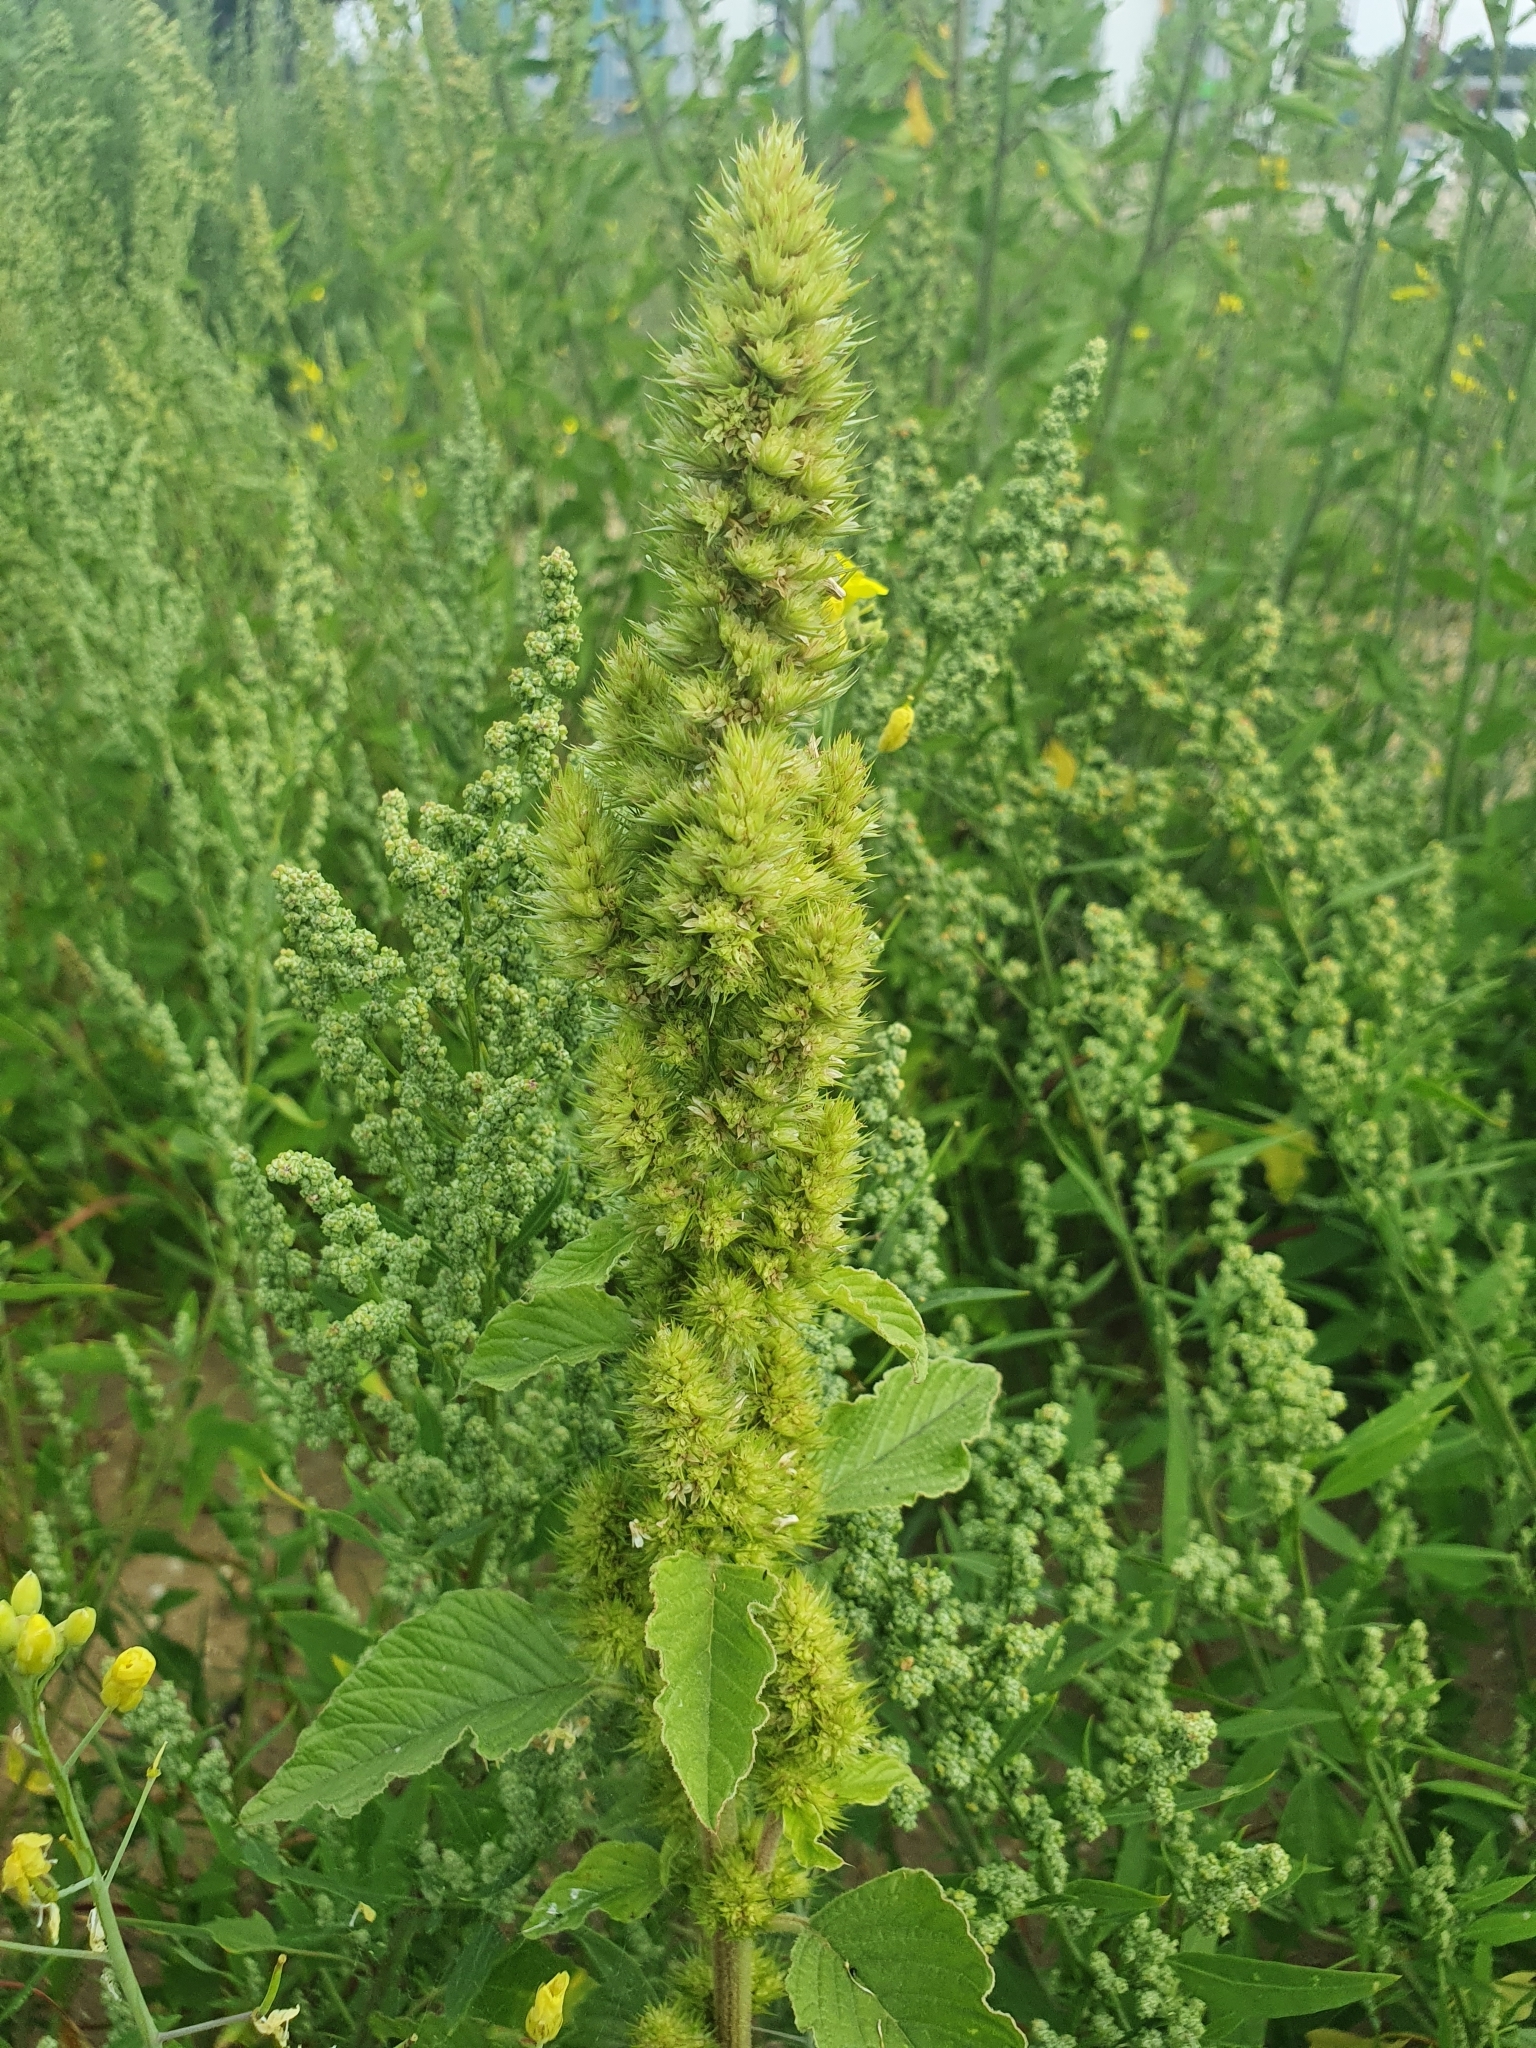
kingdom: Plantae
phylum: Tracheophyta
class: Magnoliopsida
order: Caryophyllales
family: Amaranthaceae
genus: Amaranthus
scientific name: Amaranthus retroflexus
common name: Redroot amaranth
